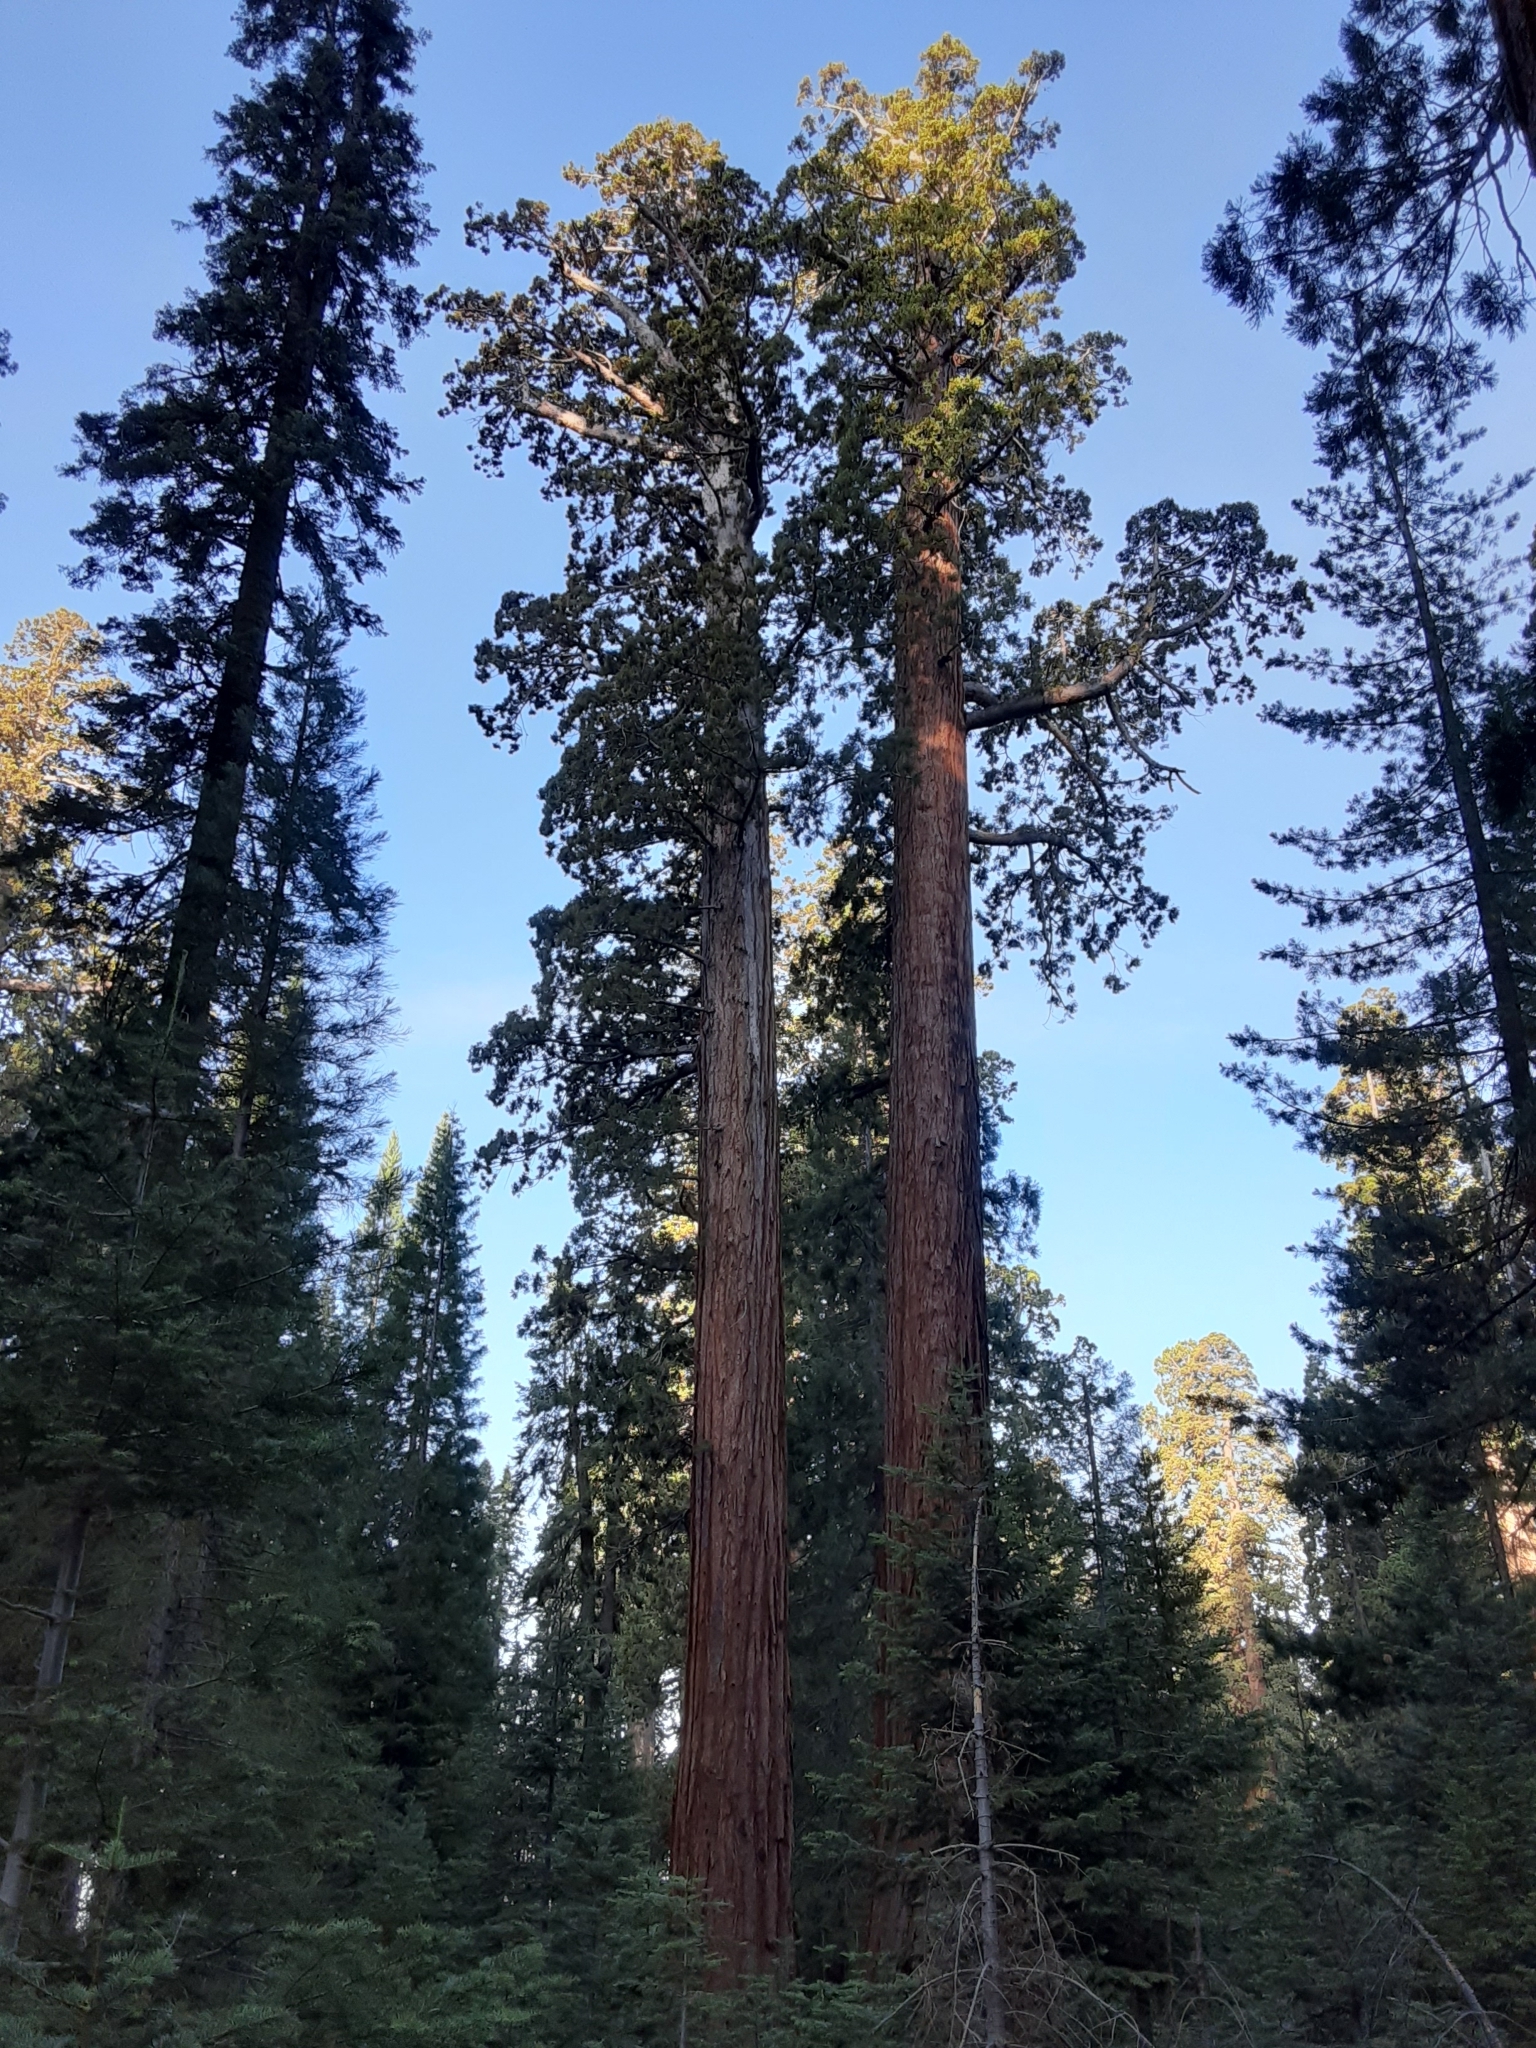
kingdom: Plantae
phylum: Tracheophyta
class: Pinopsida
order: Pinales
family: Cupressaceae
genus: Sequoiadendron
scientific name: Sequoiadendron giganteum
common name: Wellingtonia
